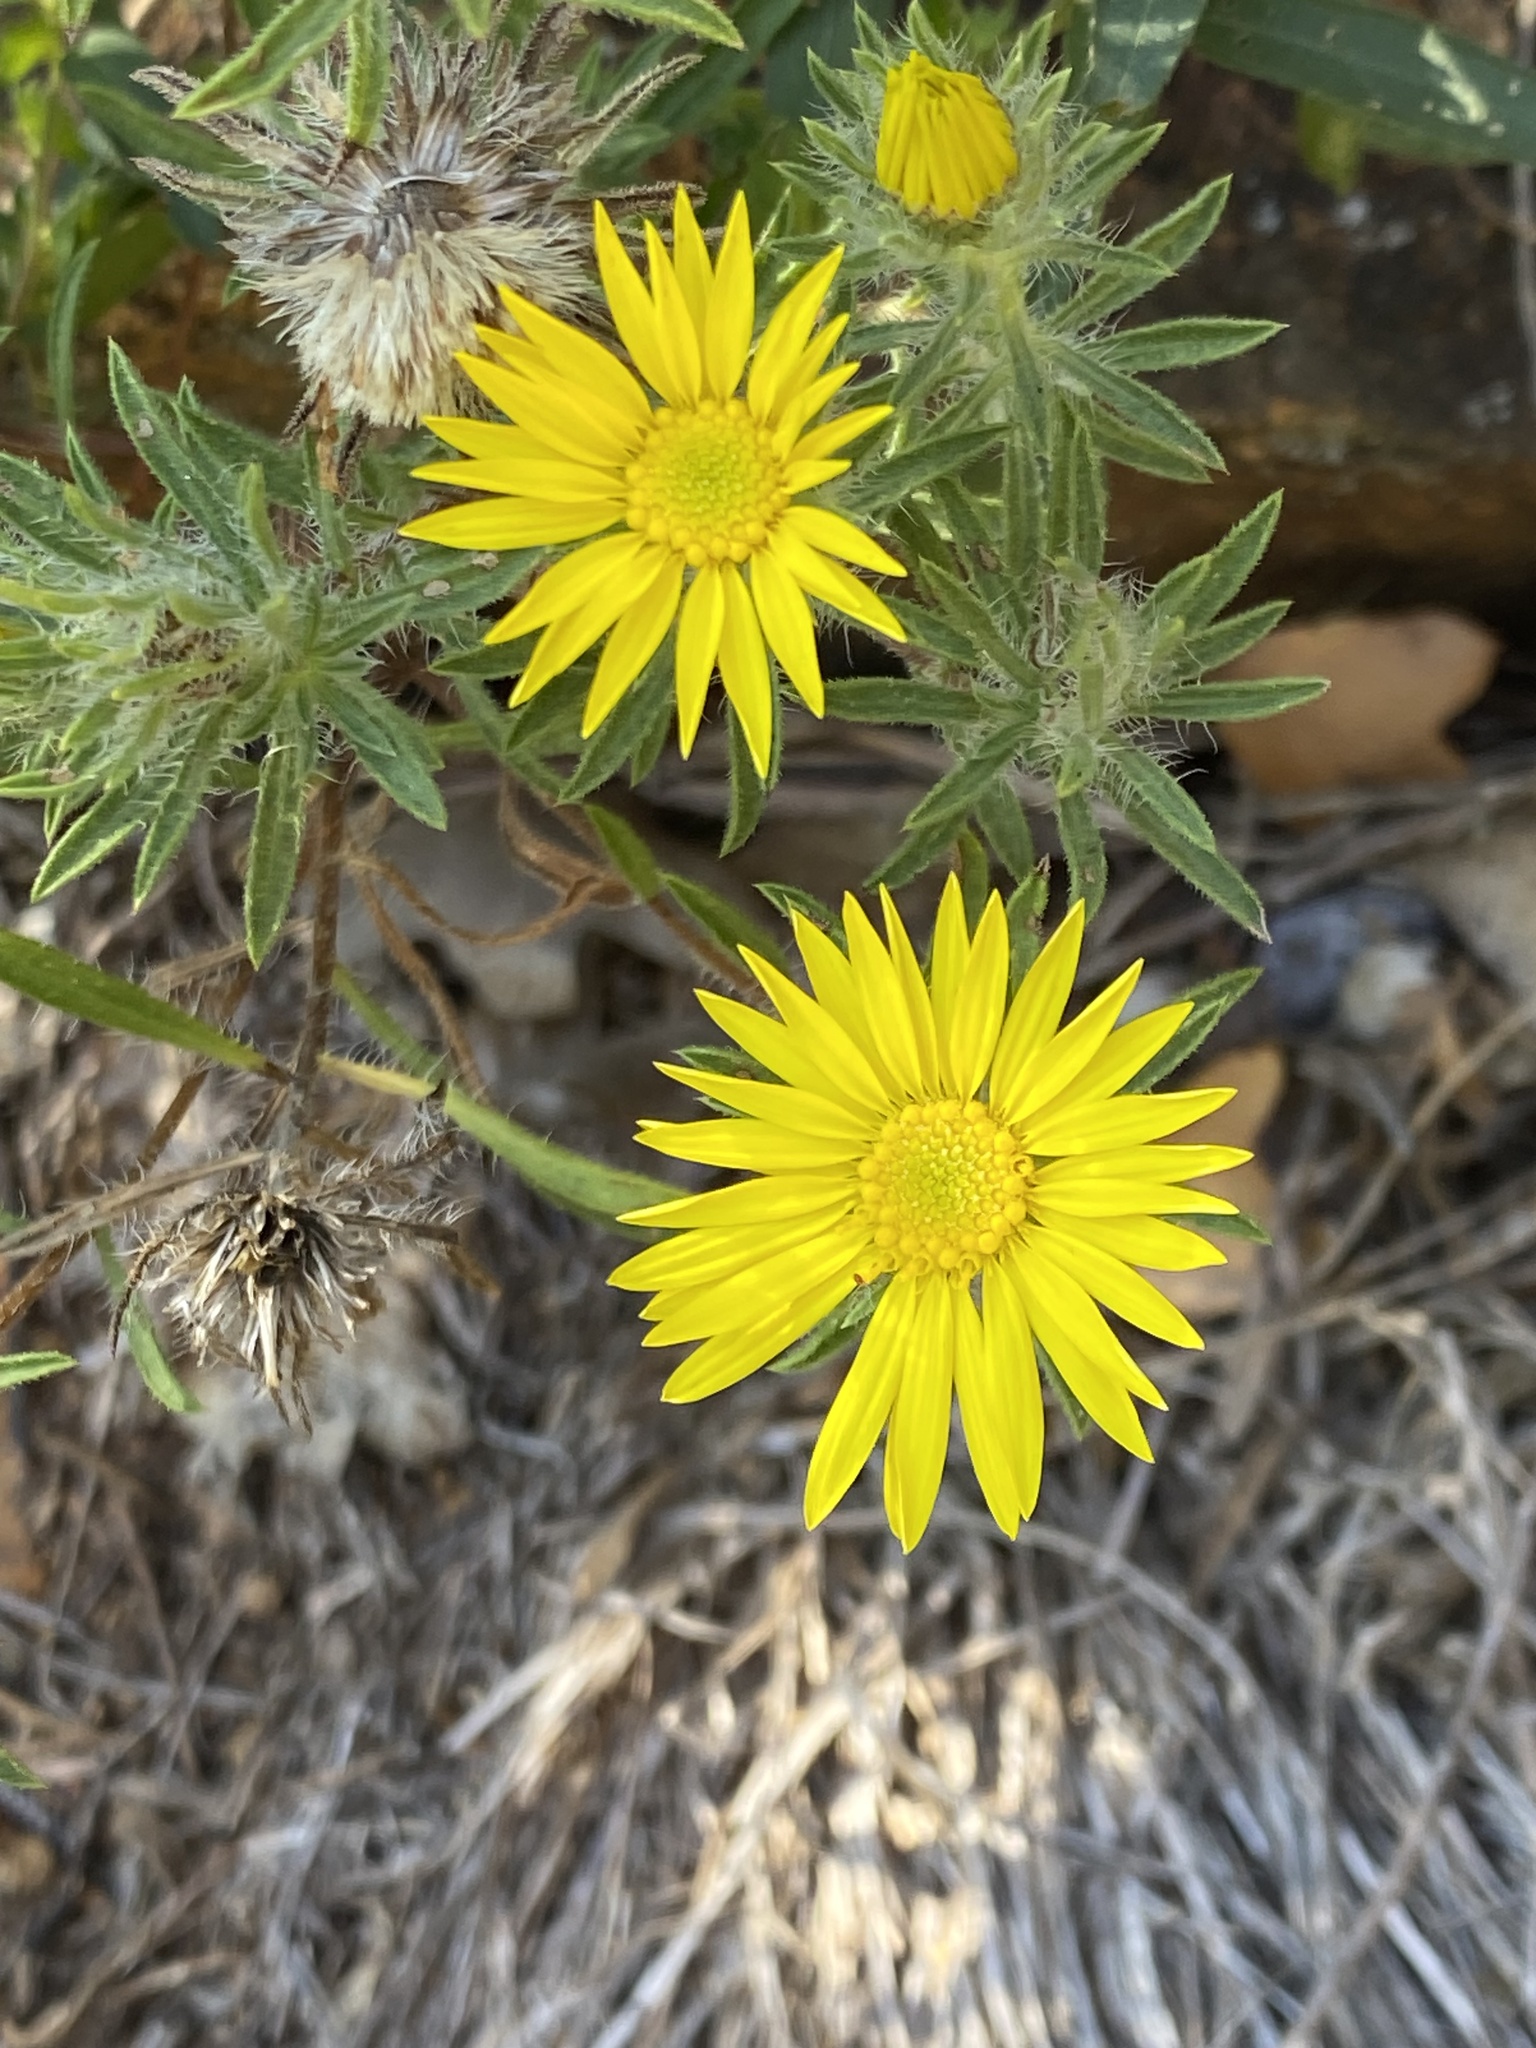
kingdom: Plantae
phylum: Tracheophyta
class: Magnoliopsida
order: Asterales
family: Asteraceae
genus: Heterotheca
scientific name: Heterotheca stenophylla
